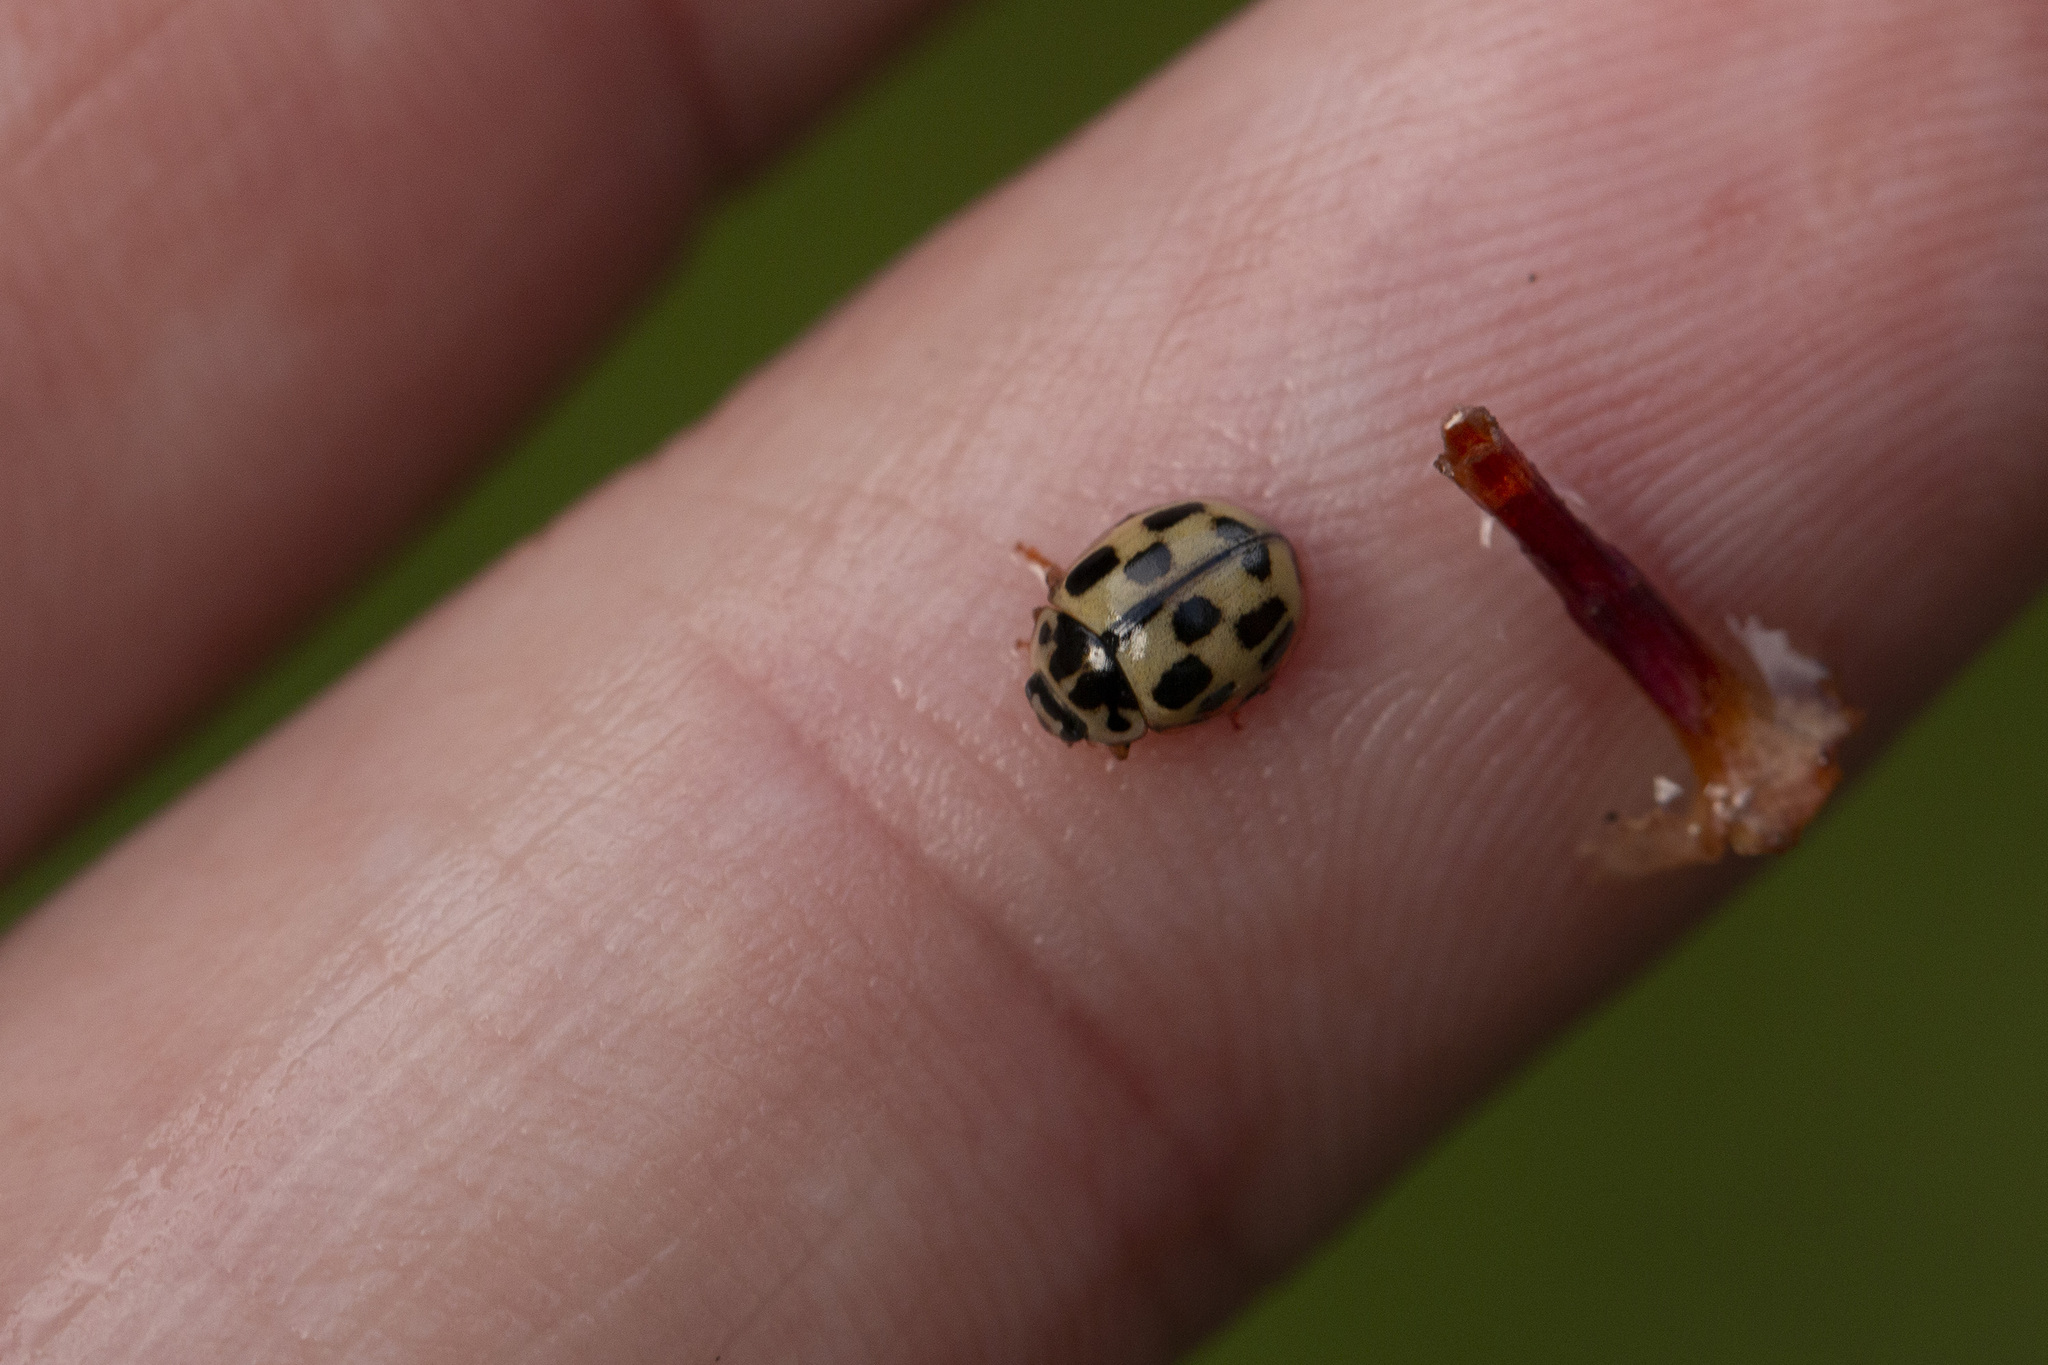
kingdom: Animalia
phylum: Arthropoda
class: Insecta
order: Coleoptera
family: Coccinellidae
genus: Propylaea
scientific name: Propylaea quatuordecimpunctata
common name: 14-spotted ladybird beetle
